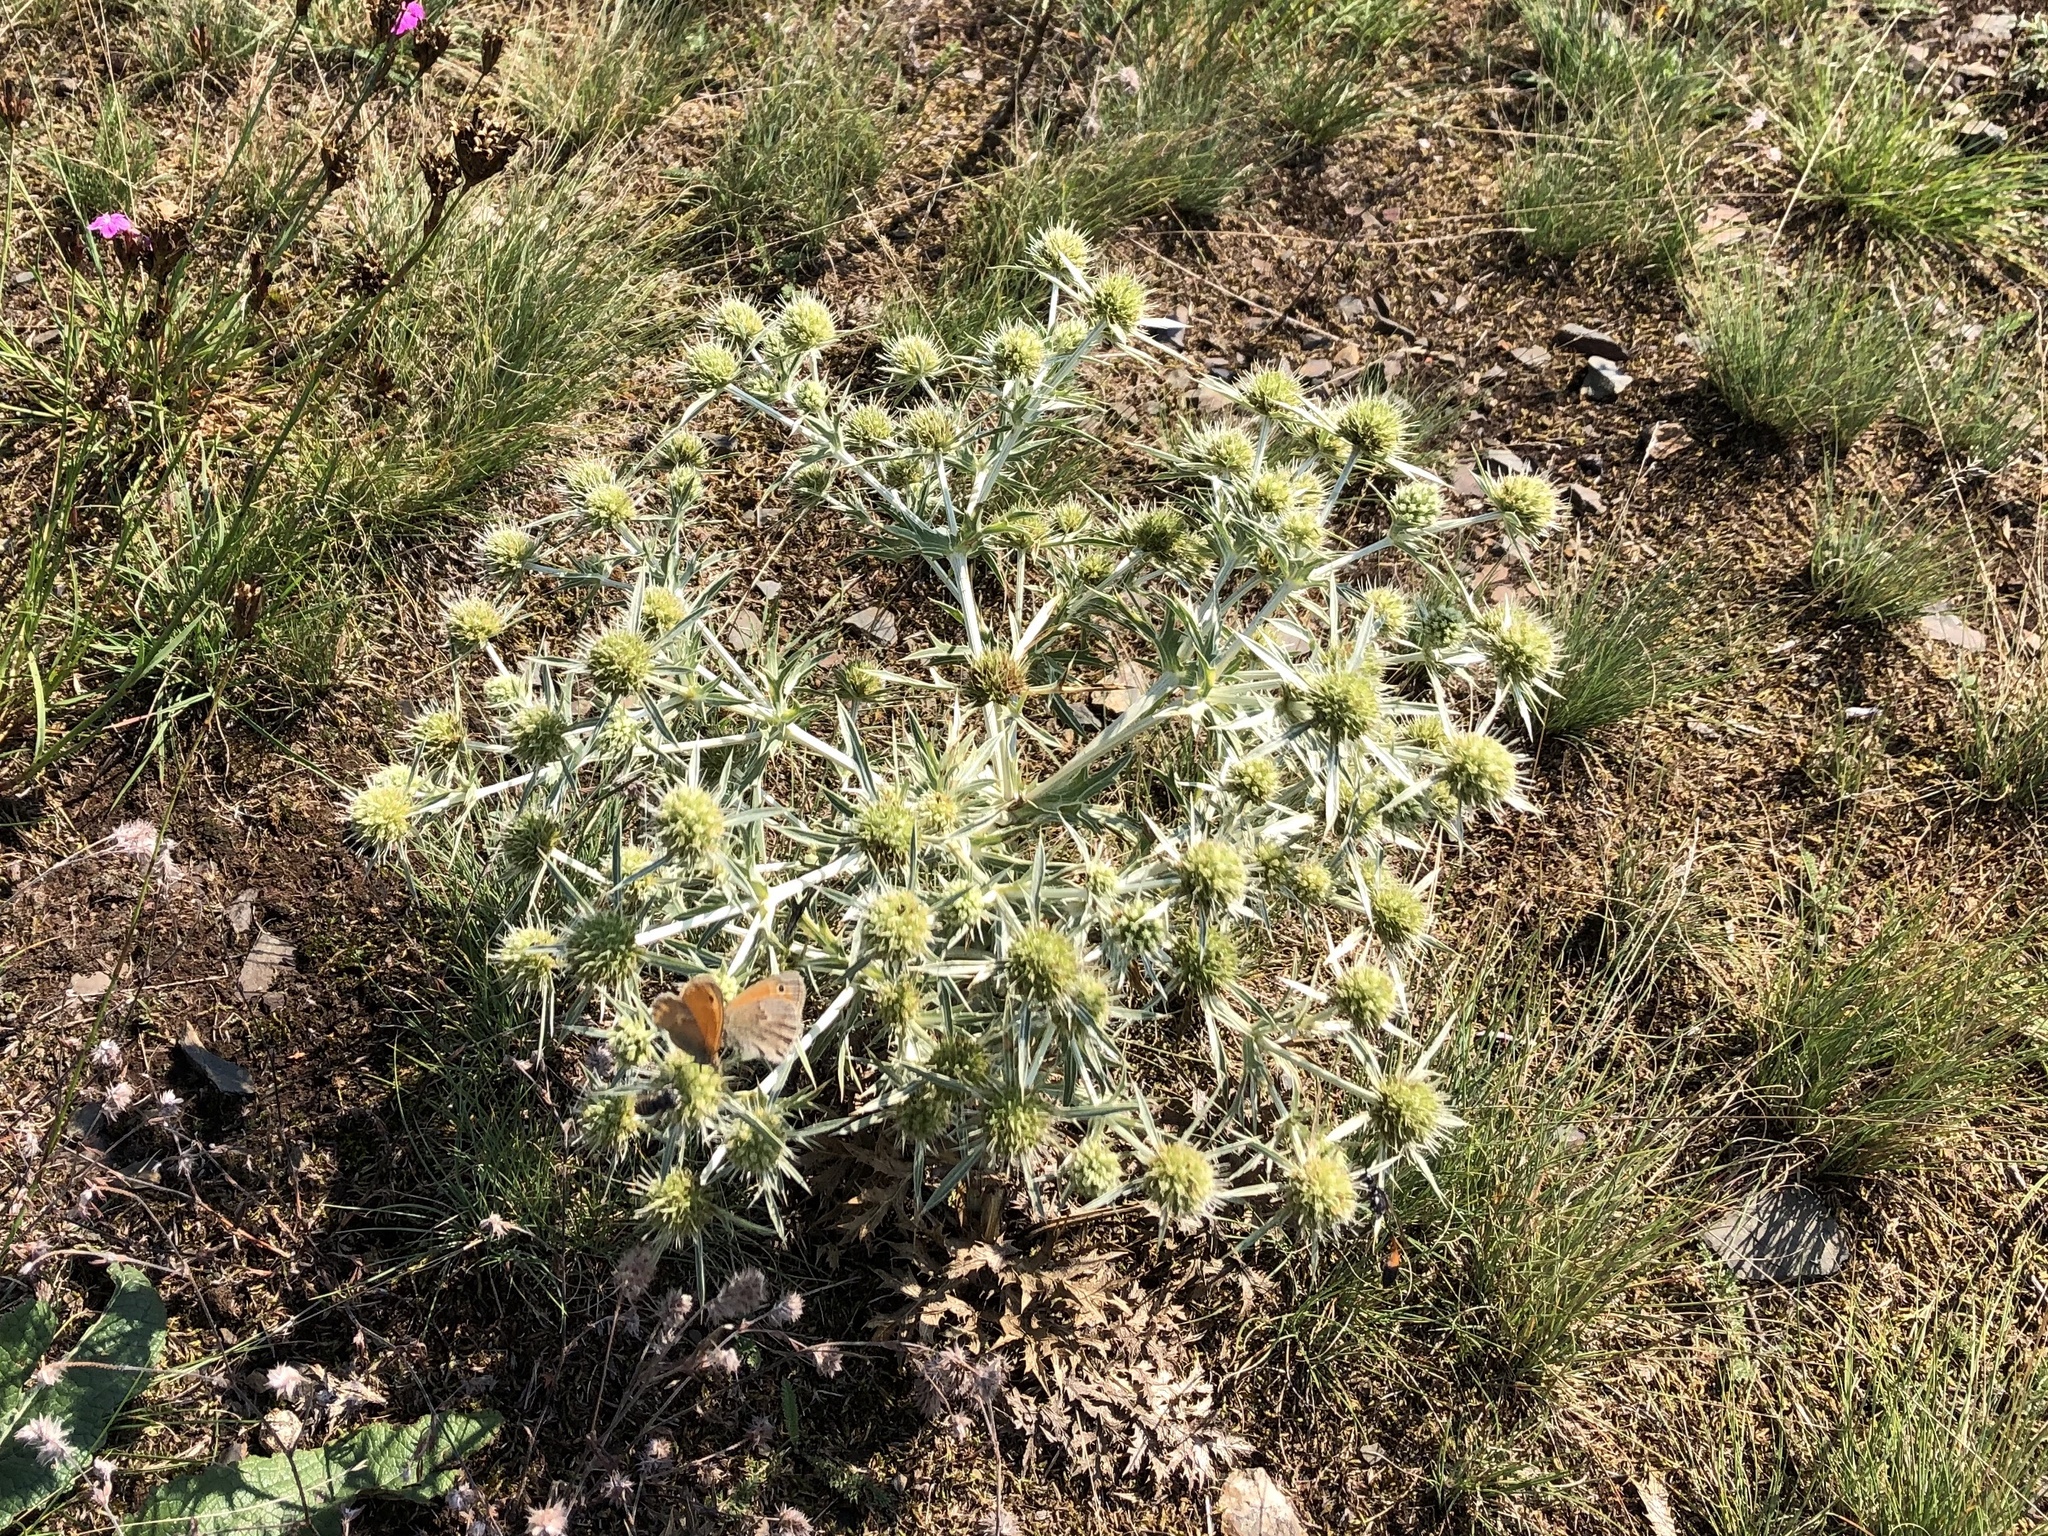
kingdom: Plantae
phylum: Tracheophyta
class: Magnoliopsida
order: Apiales
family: Apiaceae
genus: Eryngium
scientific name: Eryngium campestre
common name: Field eryngo
